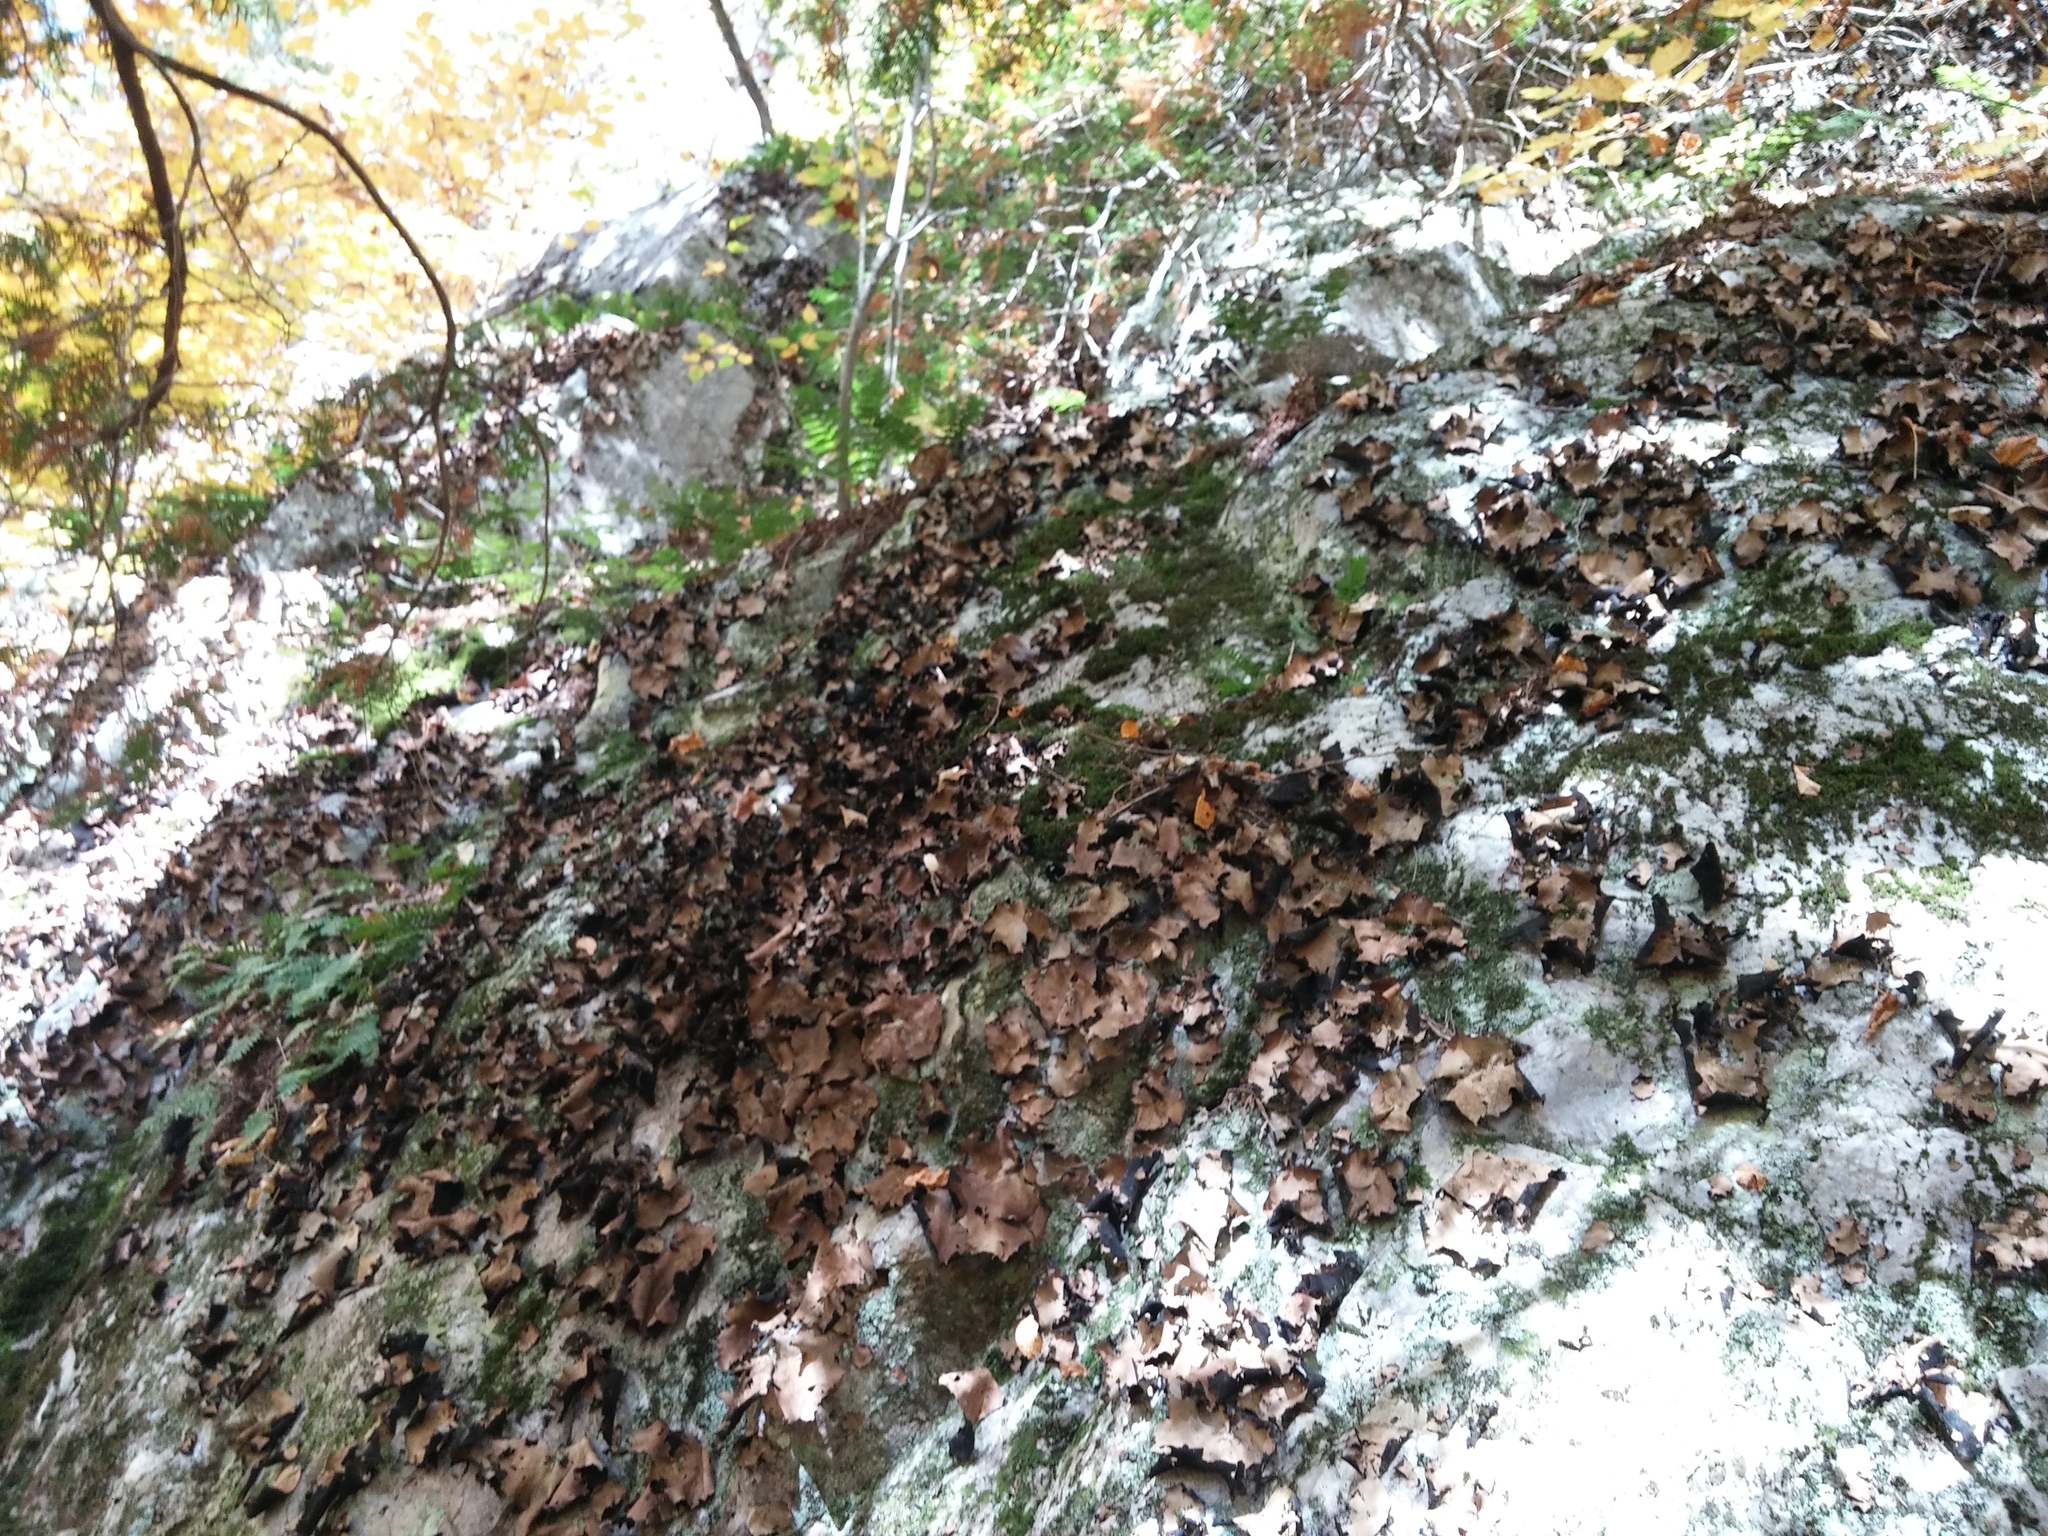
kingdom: Fungi
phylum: Ascomycota
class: Lecanoromycetes
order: Umbilicariales
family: Umbilicariaceae
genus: Umbilicaria
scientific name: Umbilicaria mammulata
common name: Smooth rock tripe
